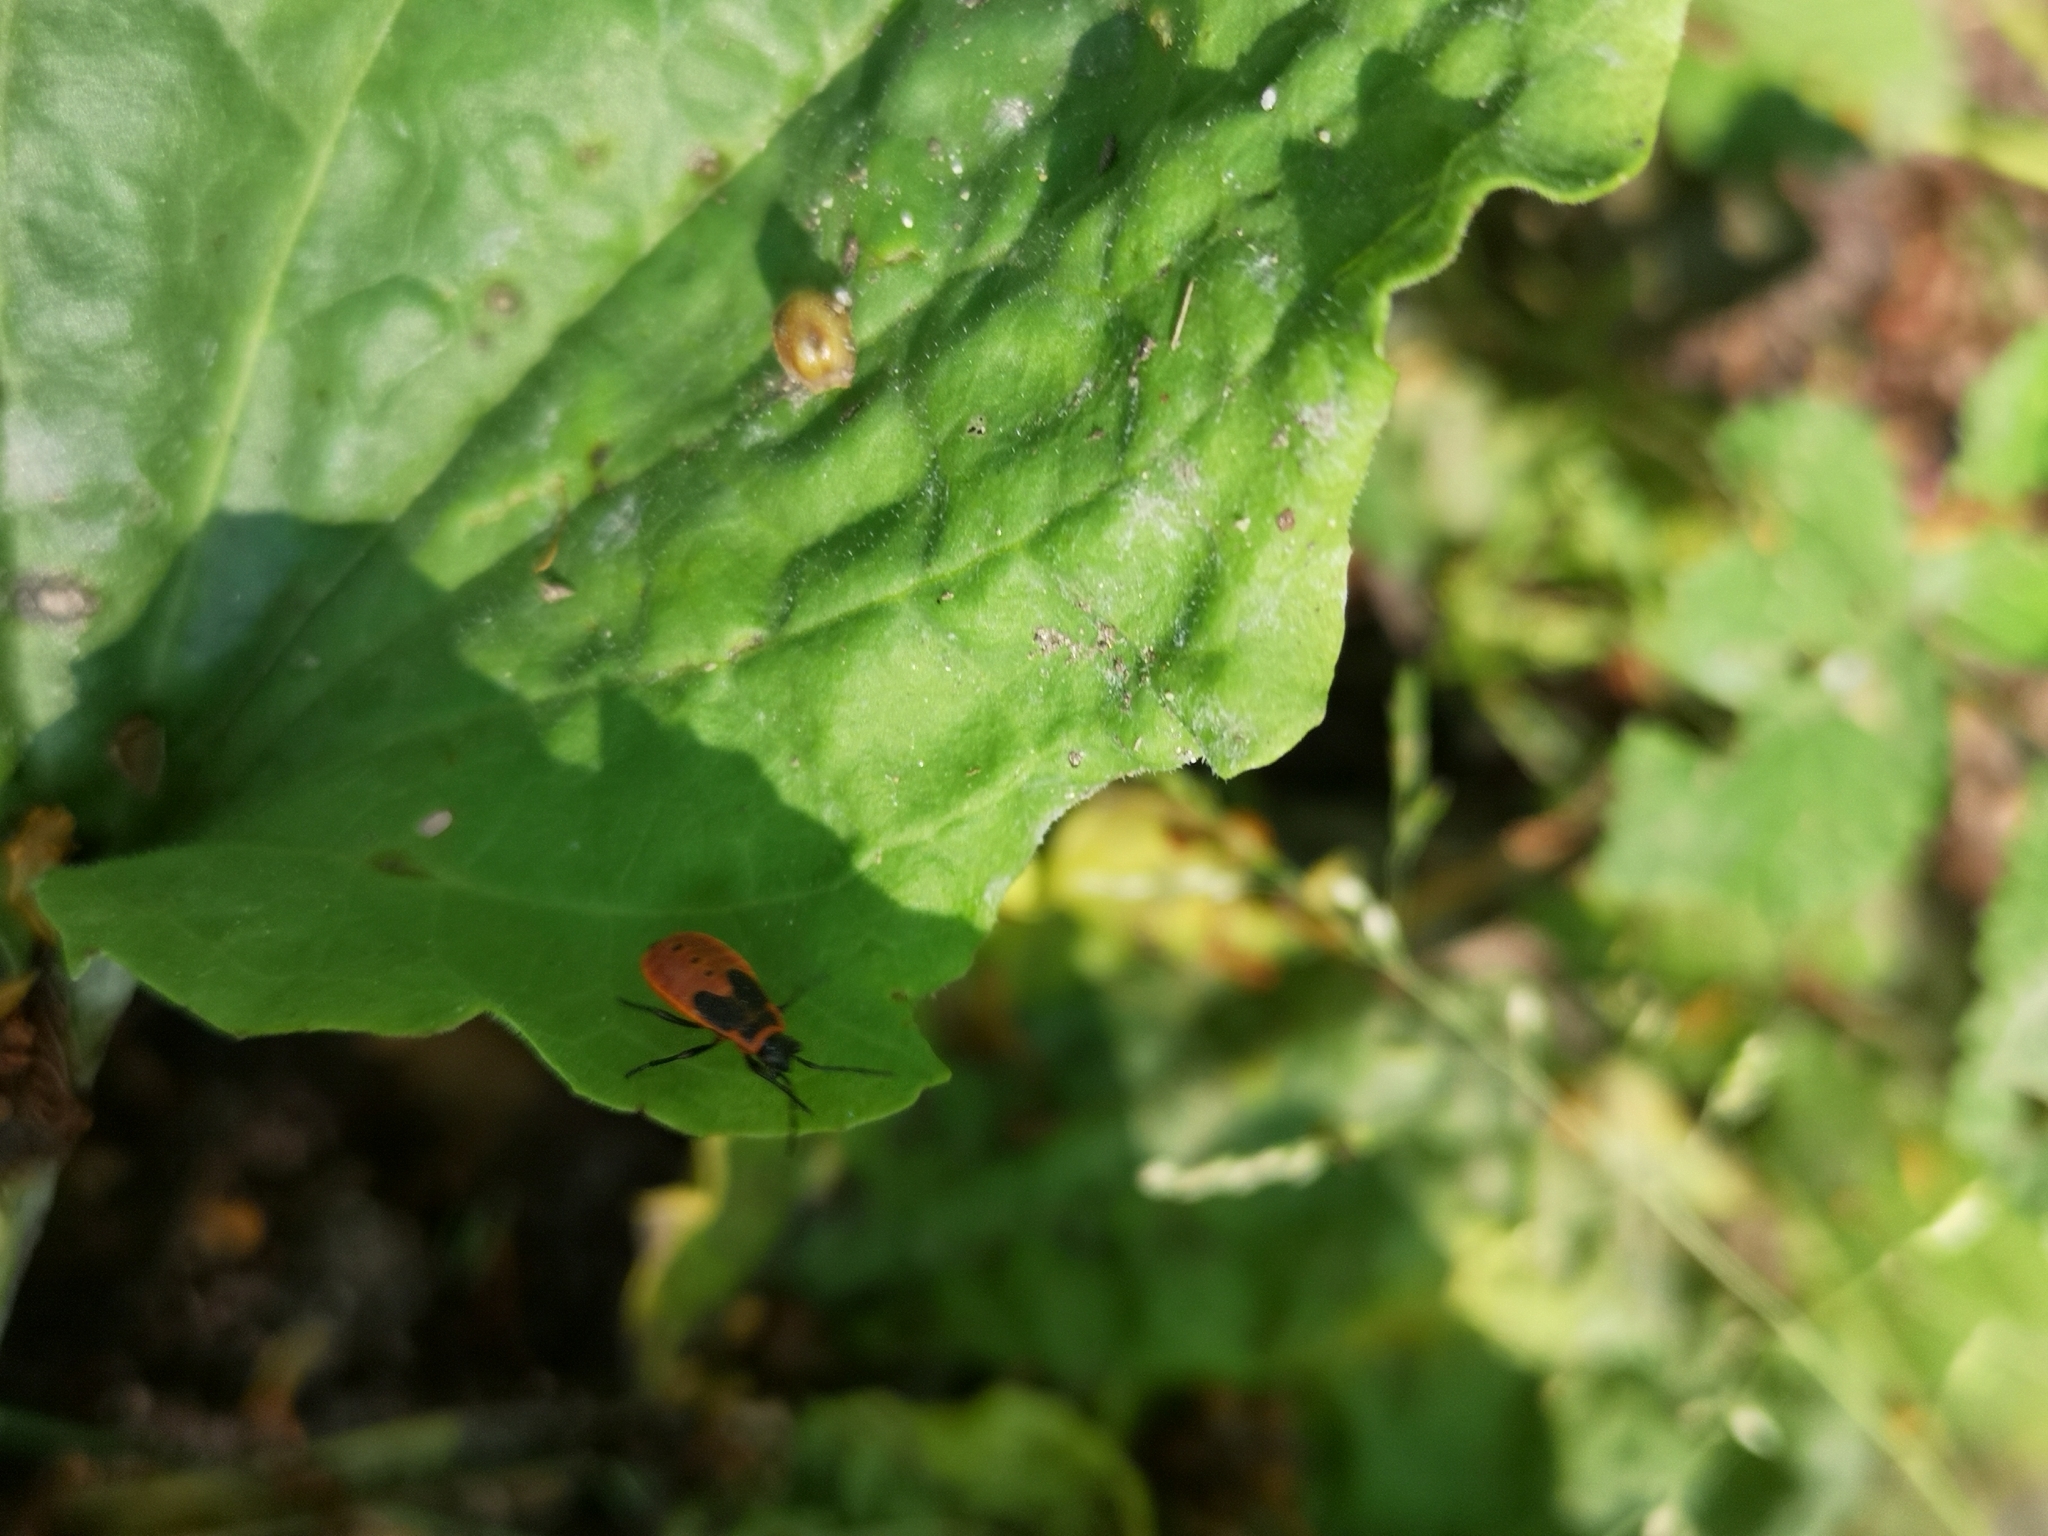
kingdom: Animalia
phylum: Arthropoda
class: Insecta
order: Hemiptera
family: Pyrrhocoridae
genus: Pyrrhocoris
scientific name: Pyrrhocoris apterus
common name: Firebug
